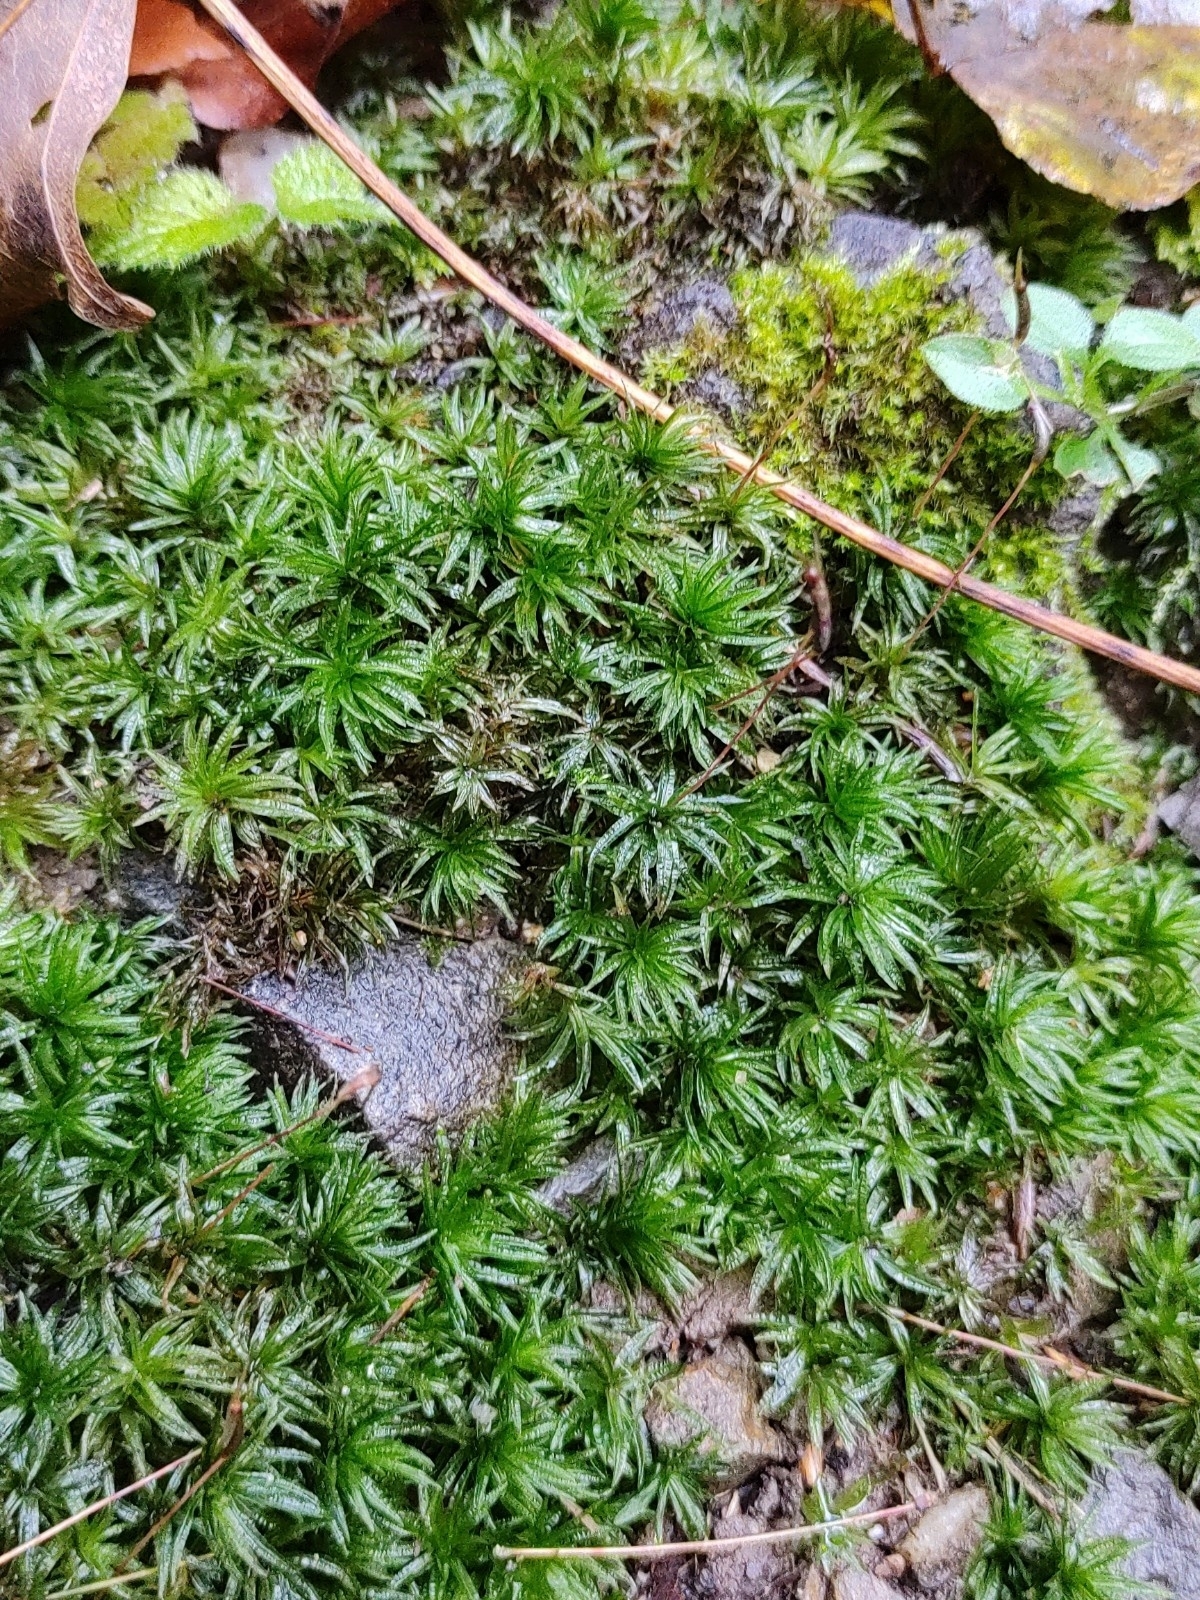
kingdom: Plantae
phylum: Bryophyta
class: Polytrichopsida
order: Polytrichales
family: Polytrichaceae
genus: Atrichum
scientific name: Atrichum undulatum
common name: Common smoothcap
